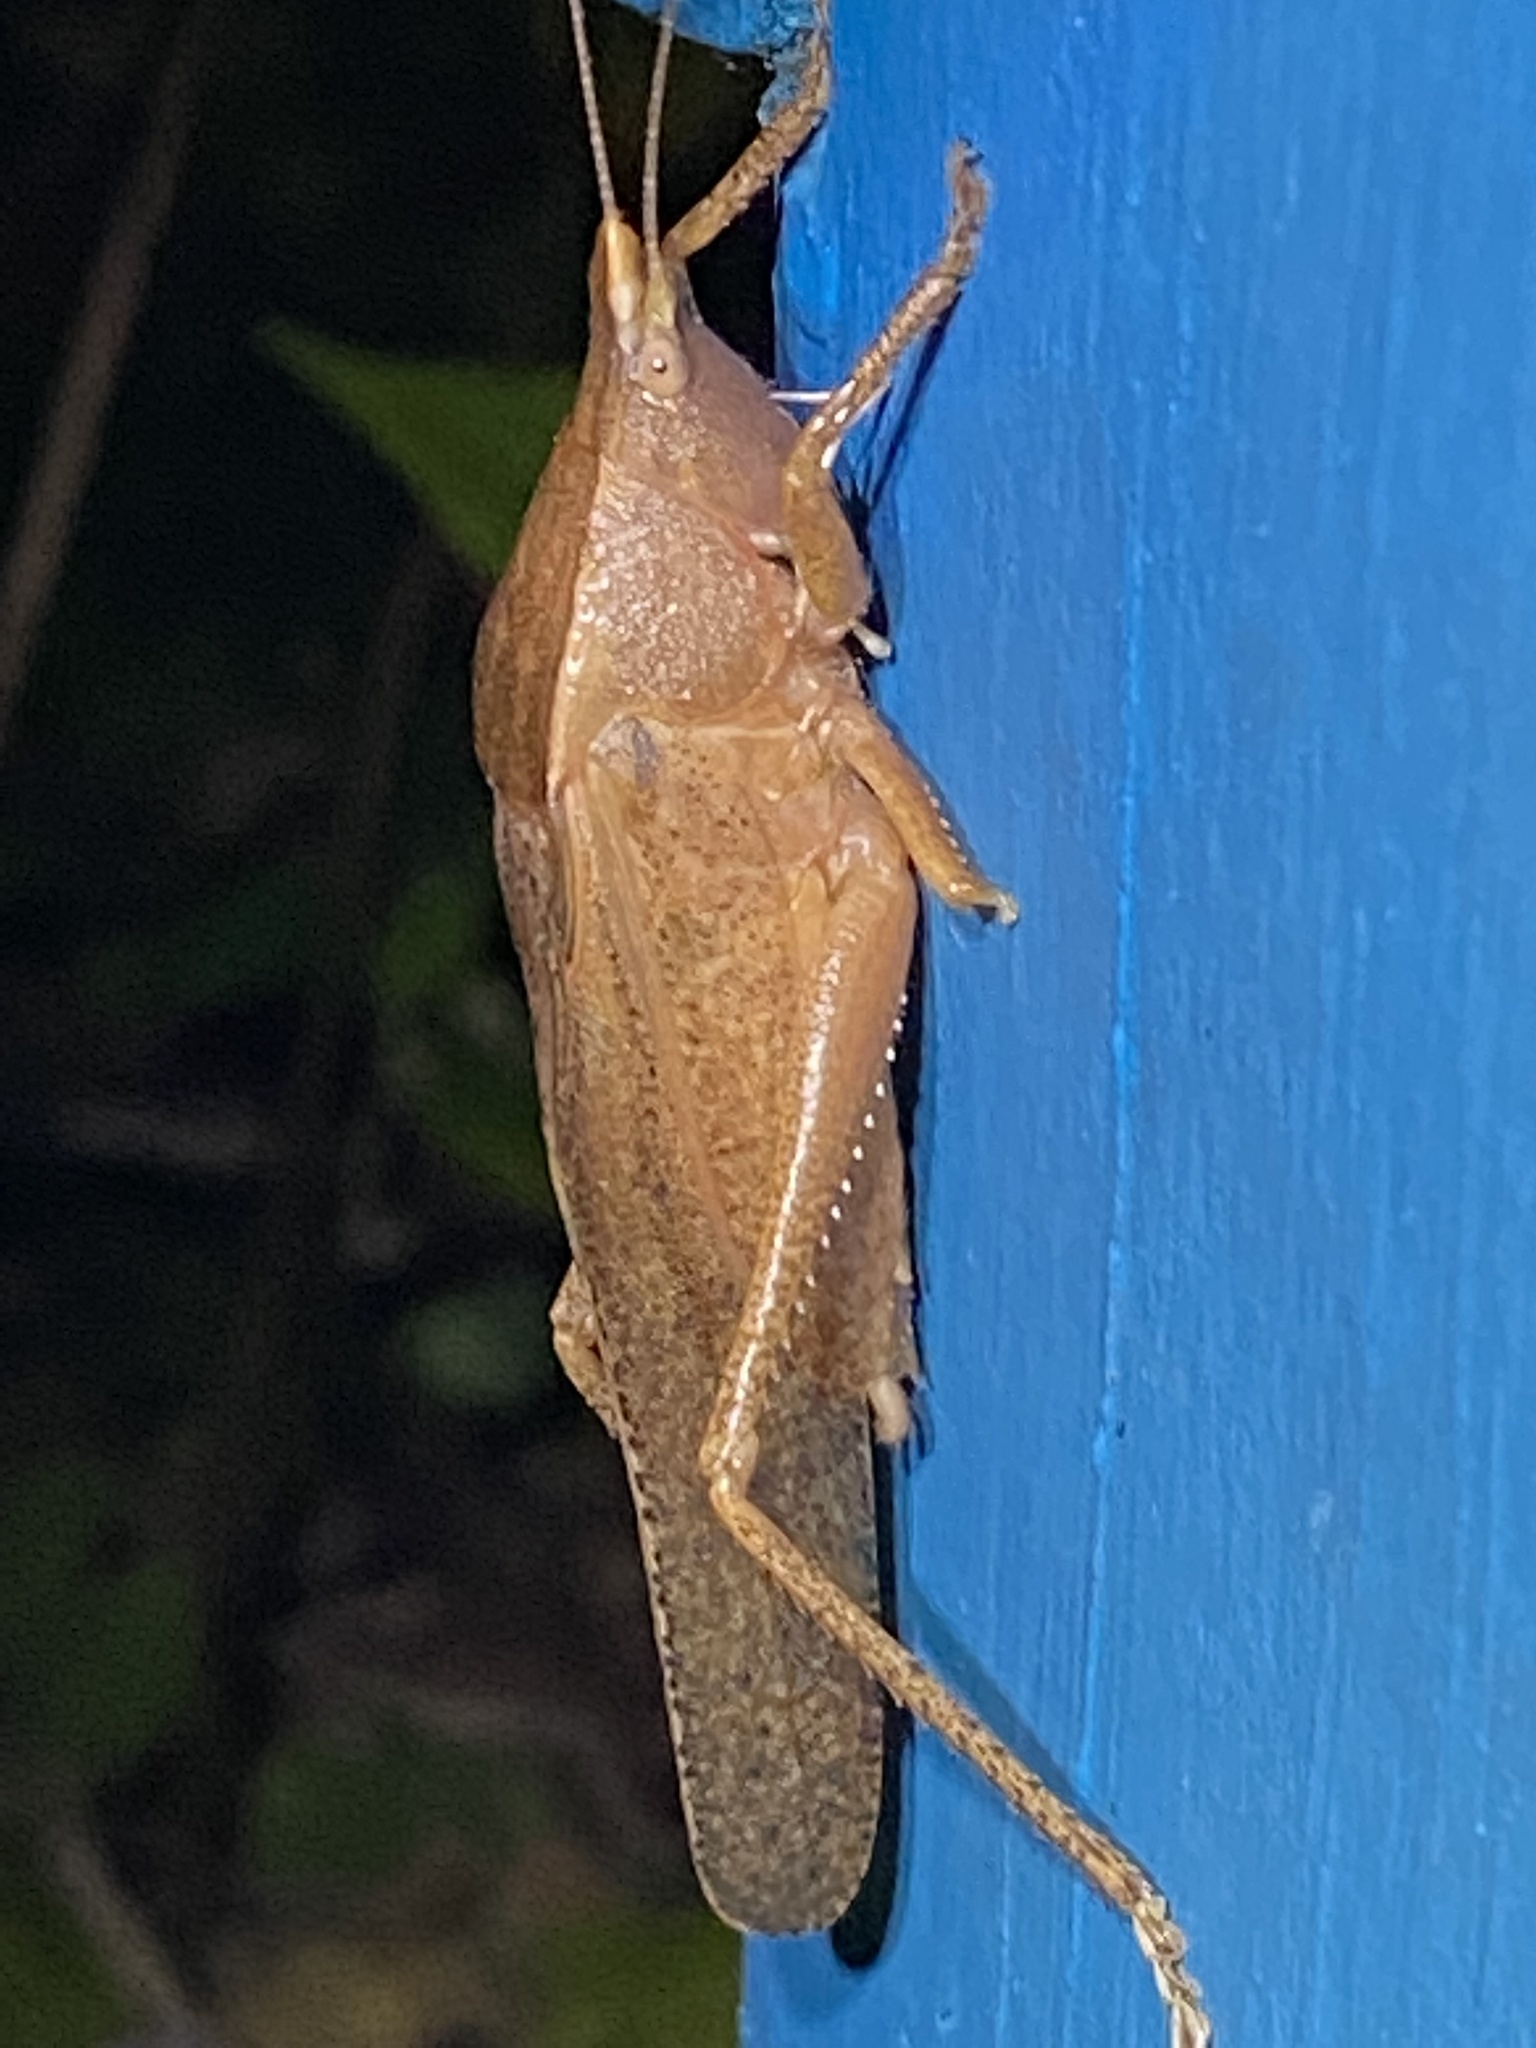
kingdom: Animalia
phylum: Arthropoda
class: Insecta
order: Orthoptera
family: Tettigoniidae
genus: Pyrgocorypha
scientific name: Pyrgocorypha uncinata
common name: Hook-faced conehead
